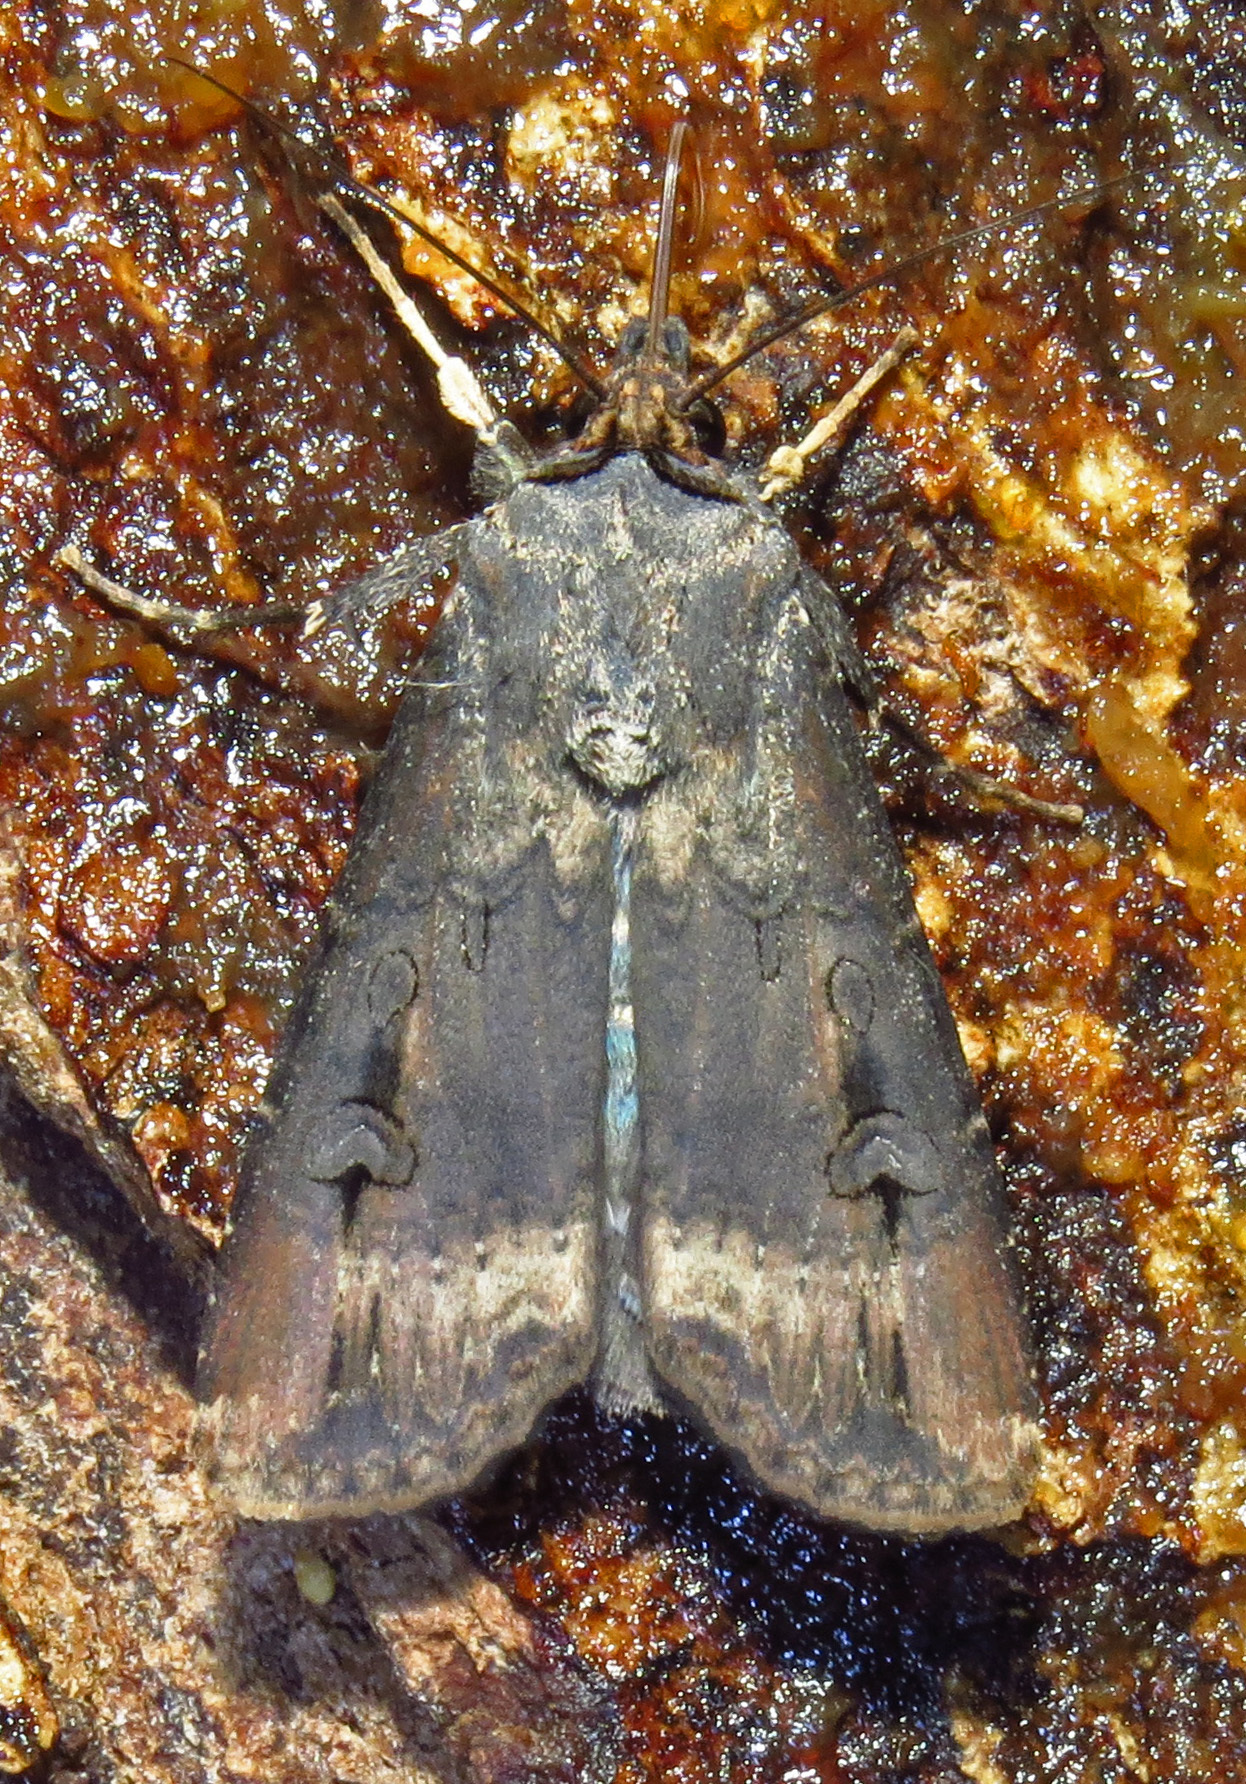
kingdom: Animalia
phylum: Arthropoda
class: Insecta
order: Lepidoptera
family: Noctuidae
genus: Agrotis
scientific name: Agrotis ipsilon
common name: Dark sword-grass
